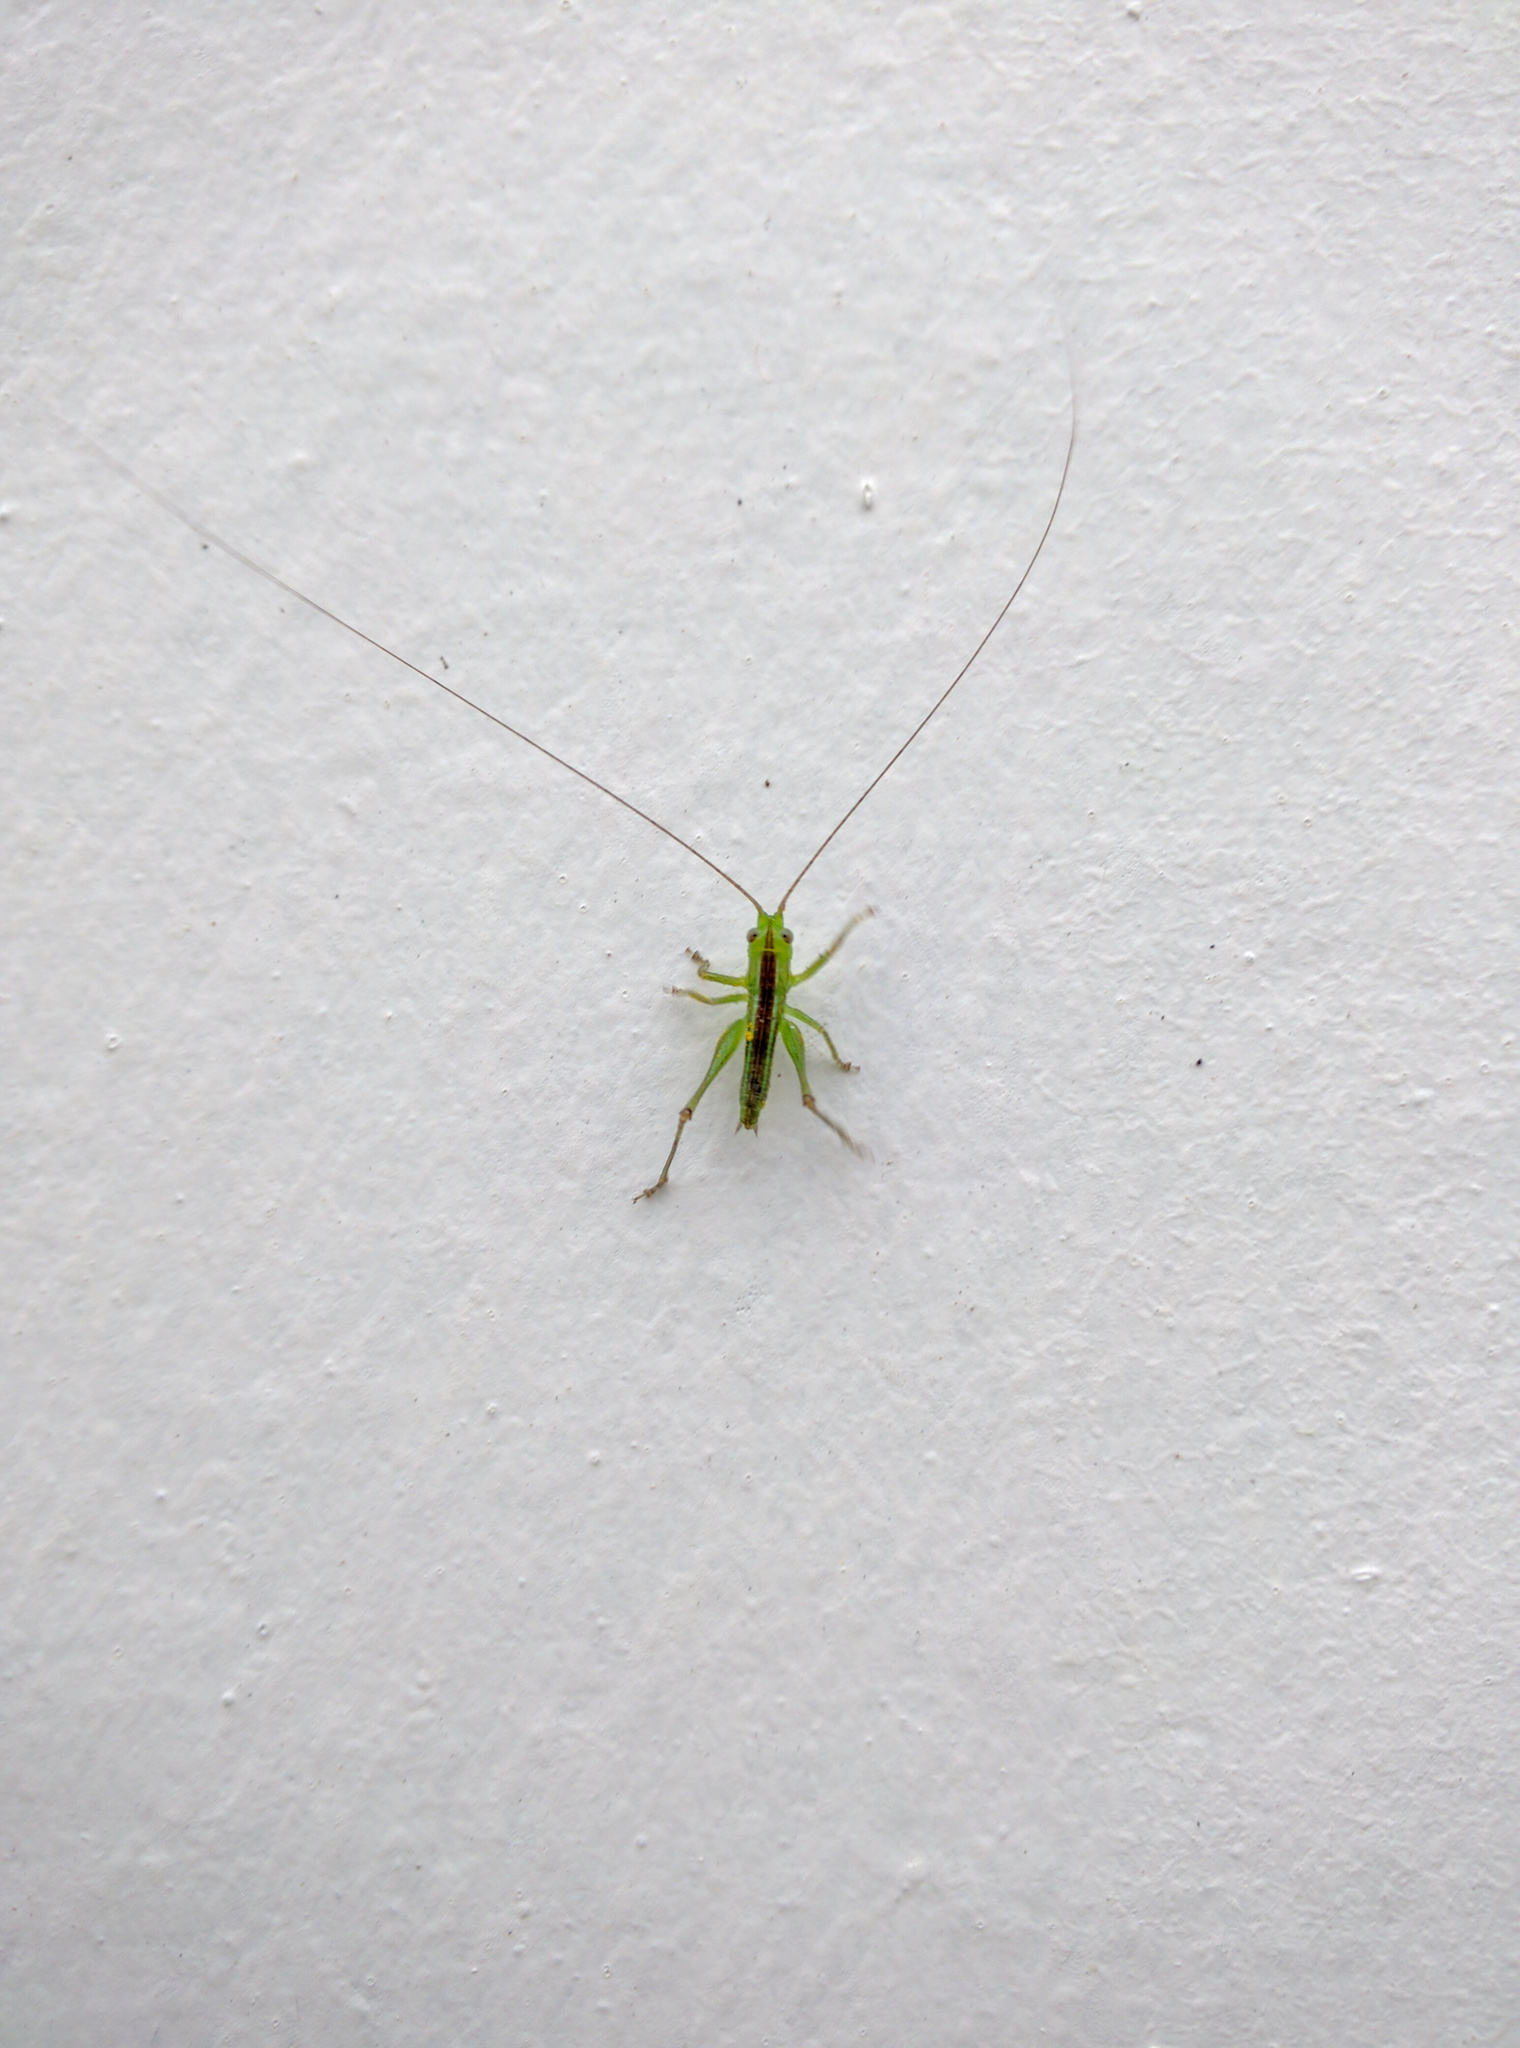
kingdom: Animalia
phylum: Arthropoda
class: Insecta
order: Orthoptera
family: Tettigoniidae
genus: Conocephalus
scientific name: Conocephalus semivittatus
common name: Blackish meadow katydid
